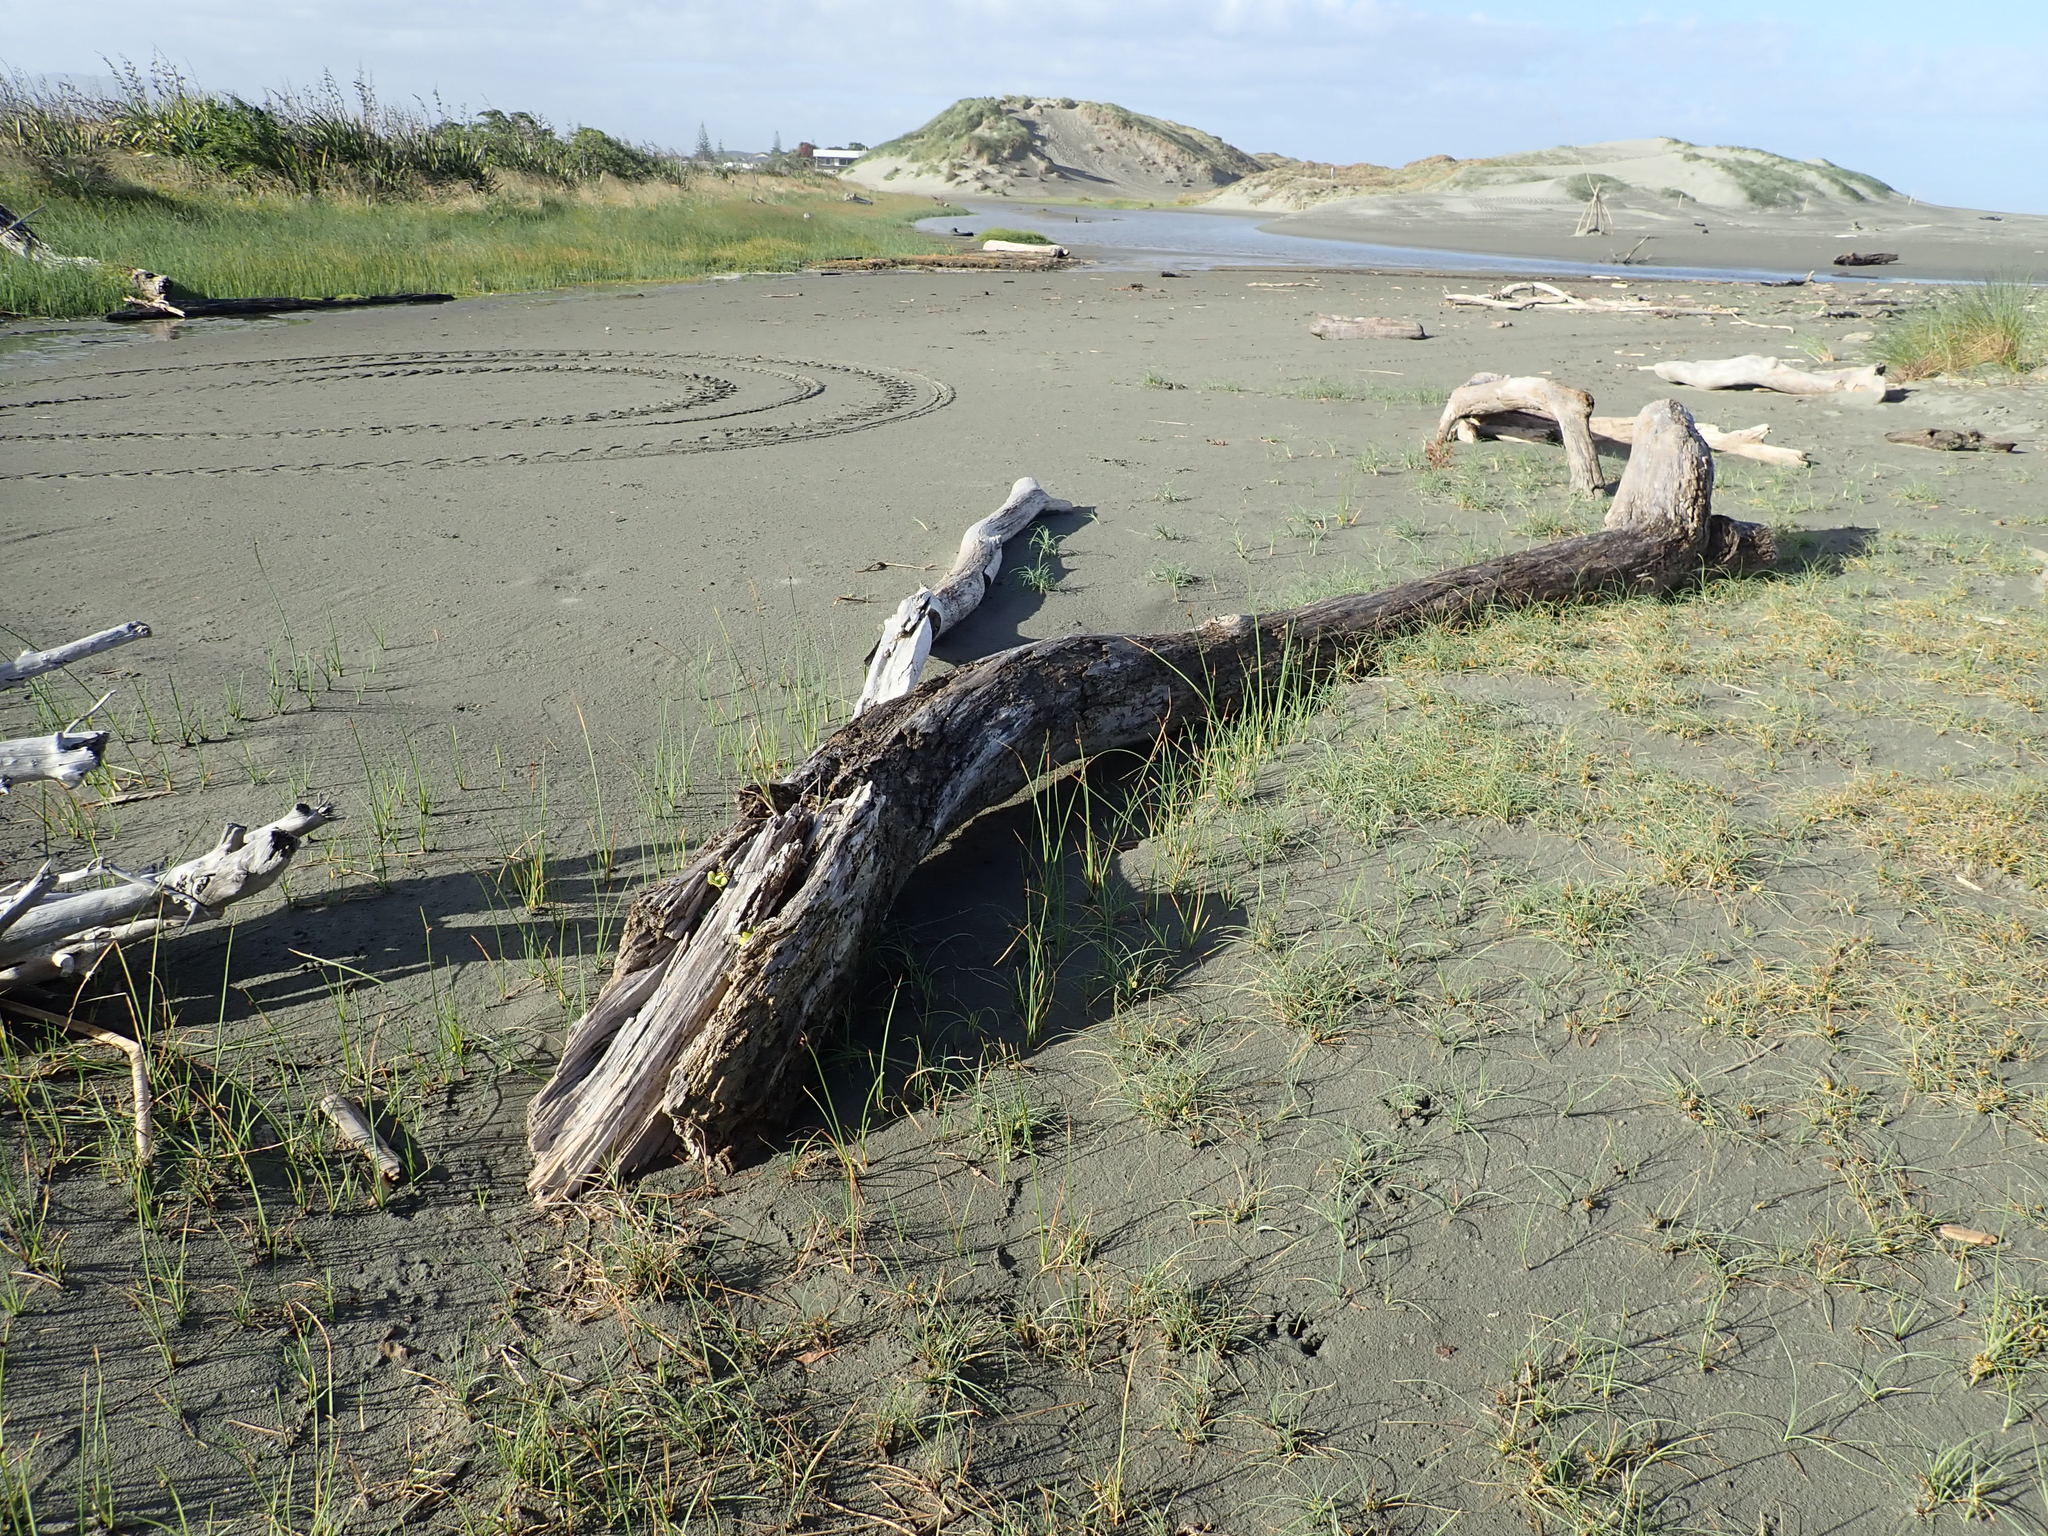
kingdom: Plantae
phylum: Tracheophyta
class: Magnoliopsida
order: Gentianales
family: Rubiaceae
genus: Coprosma
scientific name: Coprosma repens
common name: Tree bedstraw
